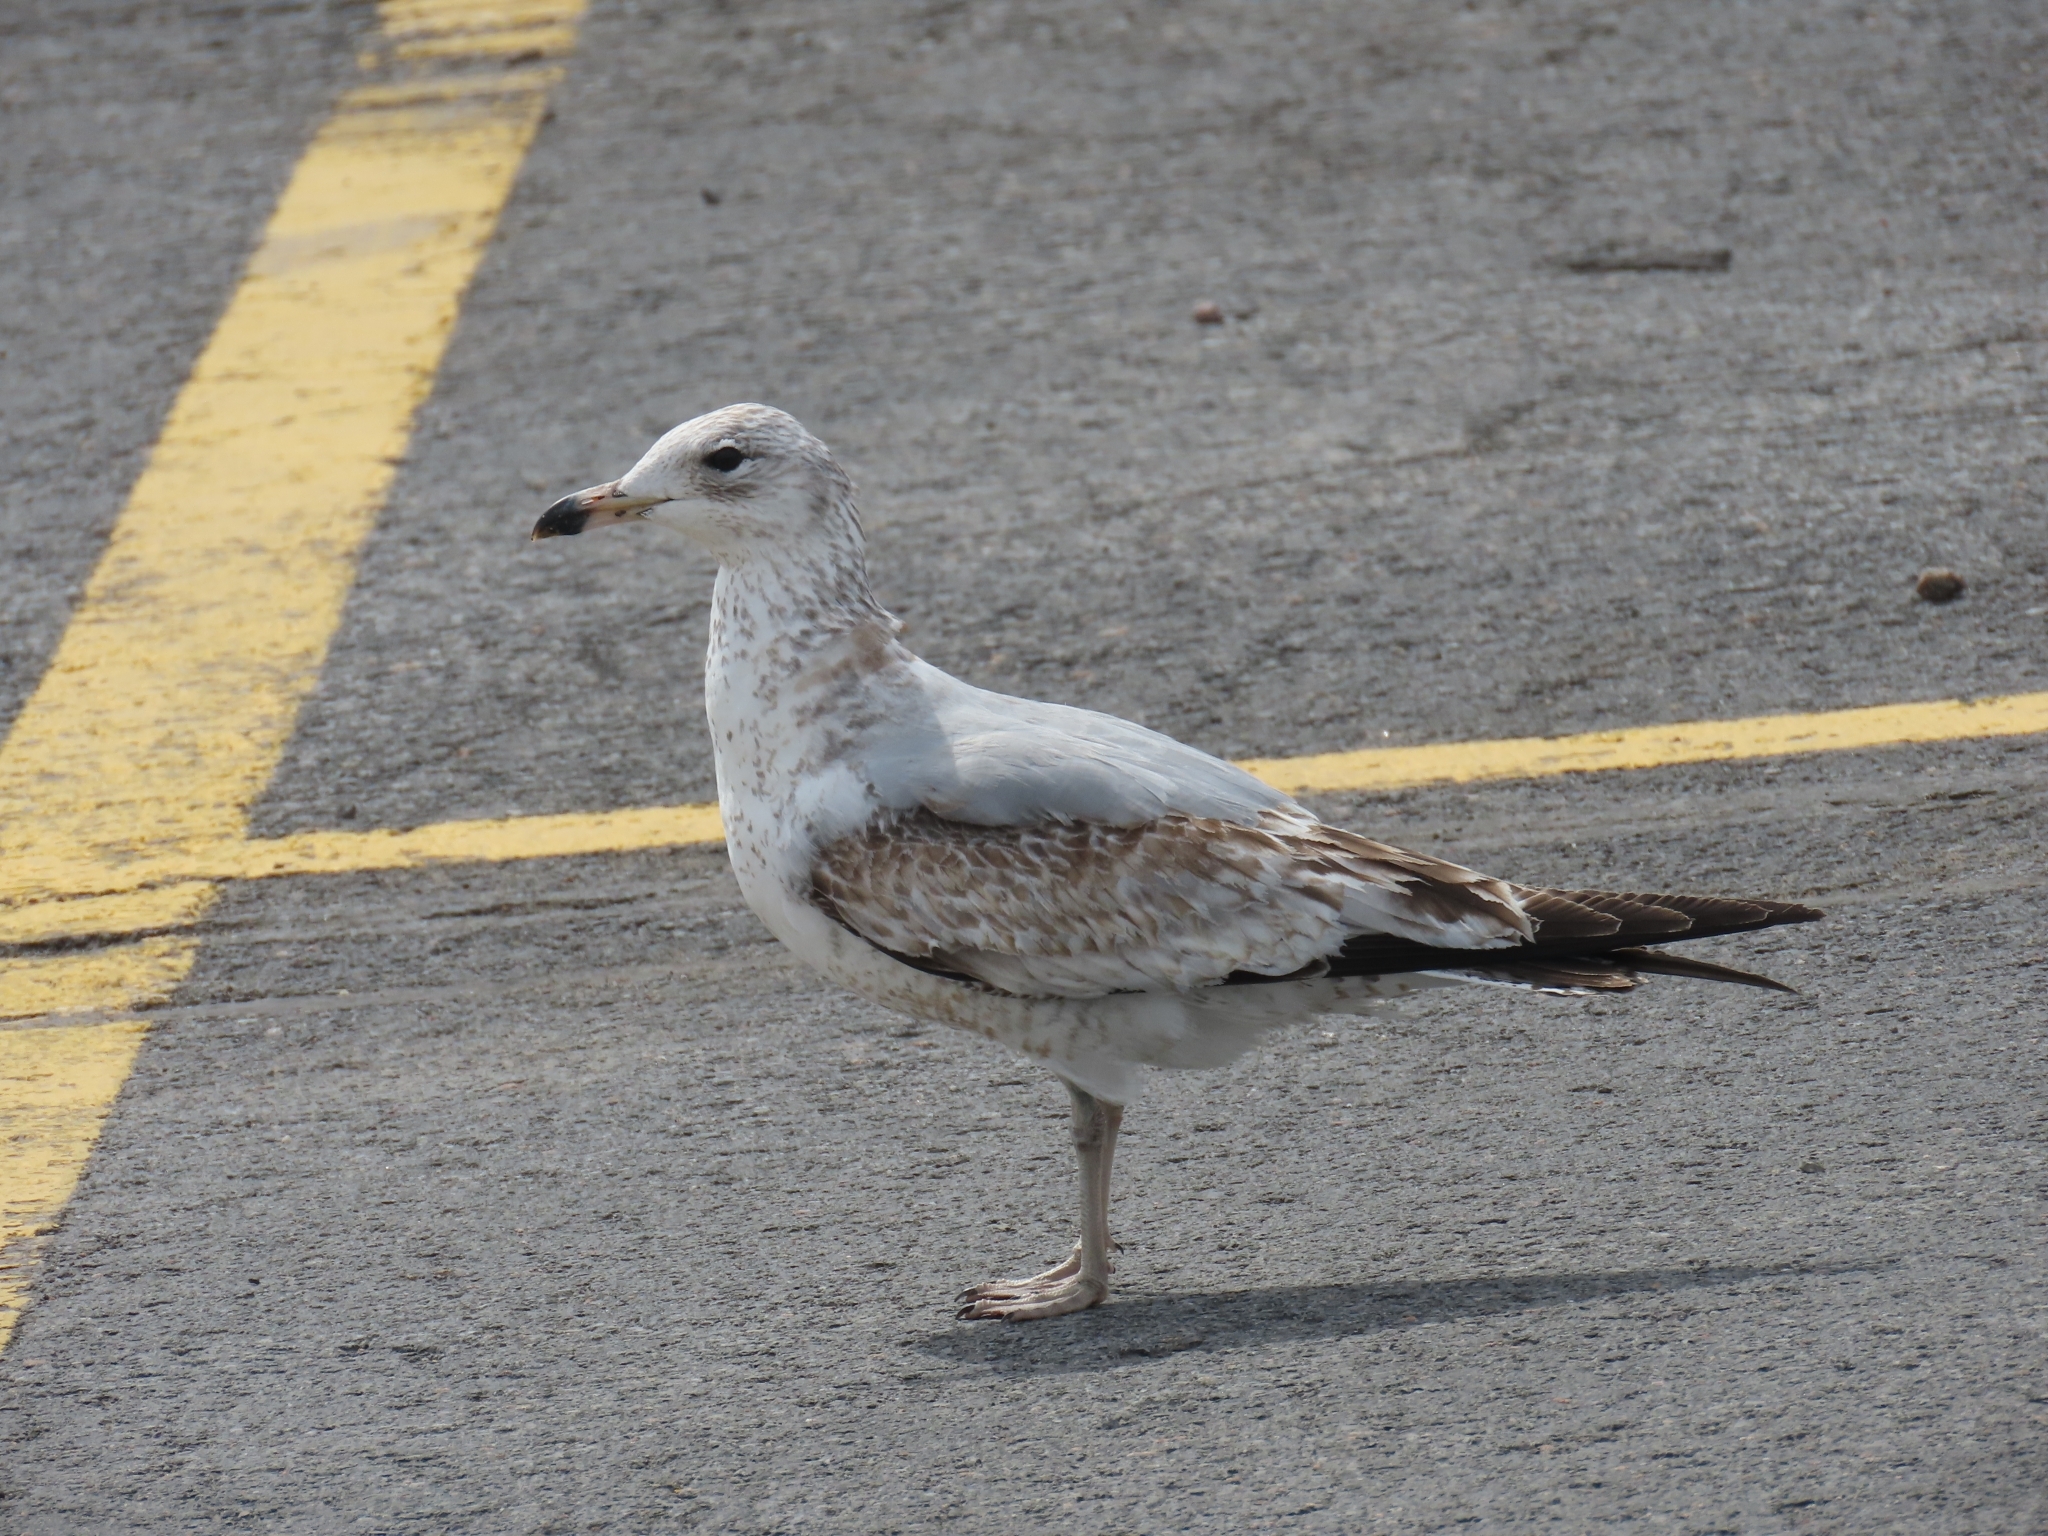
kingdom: Animalia
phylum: Chordata
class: Aves
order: Charadriiformes
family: Laridae
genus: Larus
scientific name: Larus delawarensis
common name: Ring-billed gull
